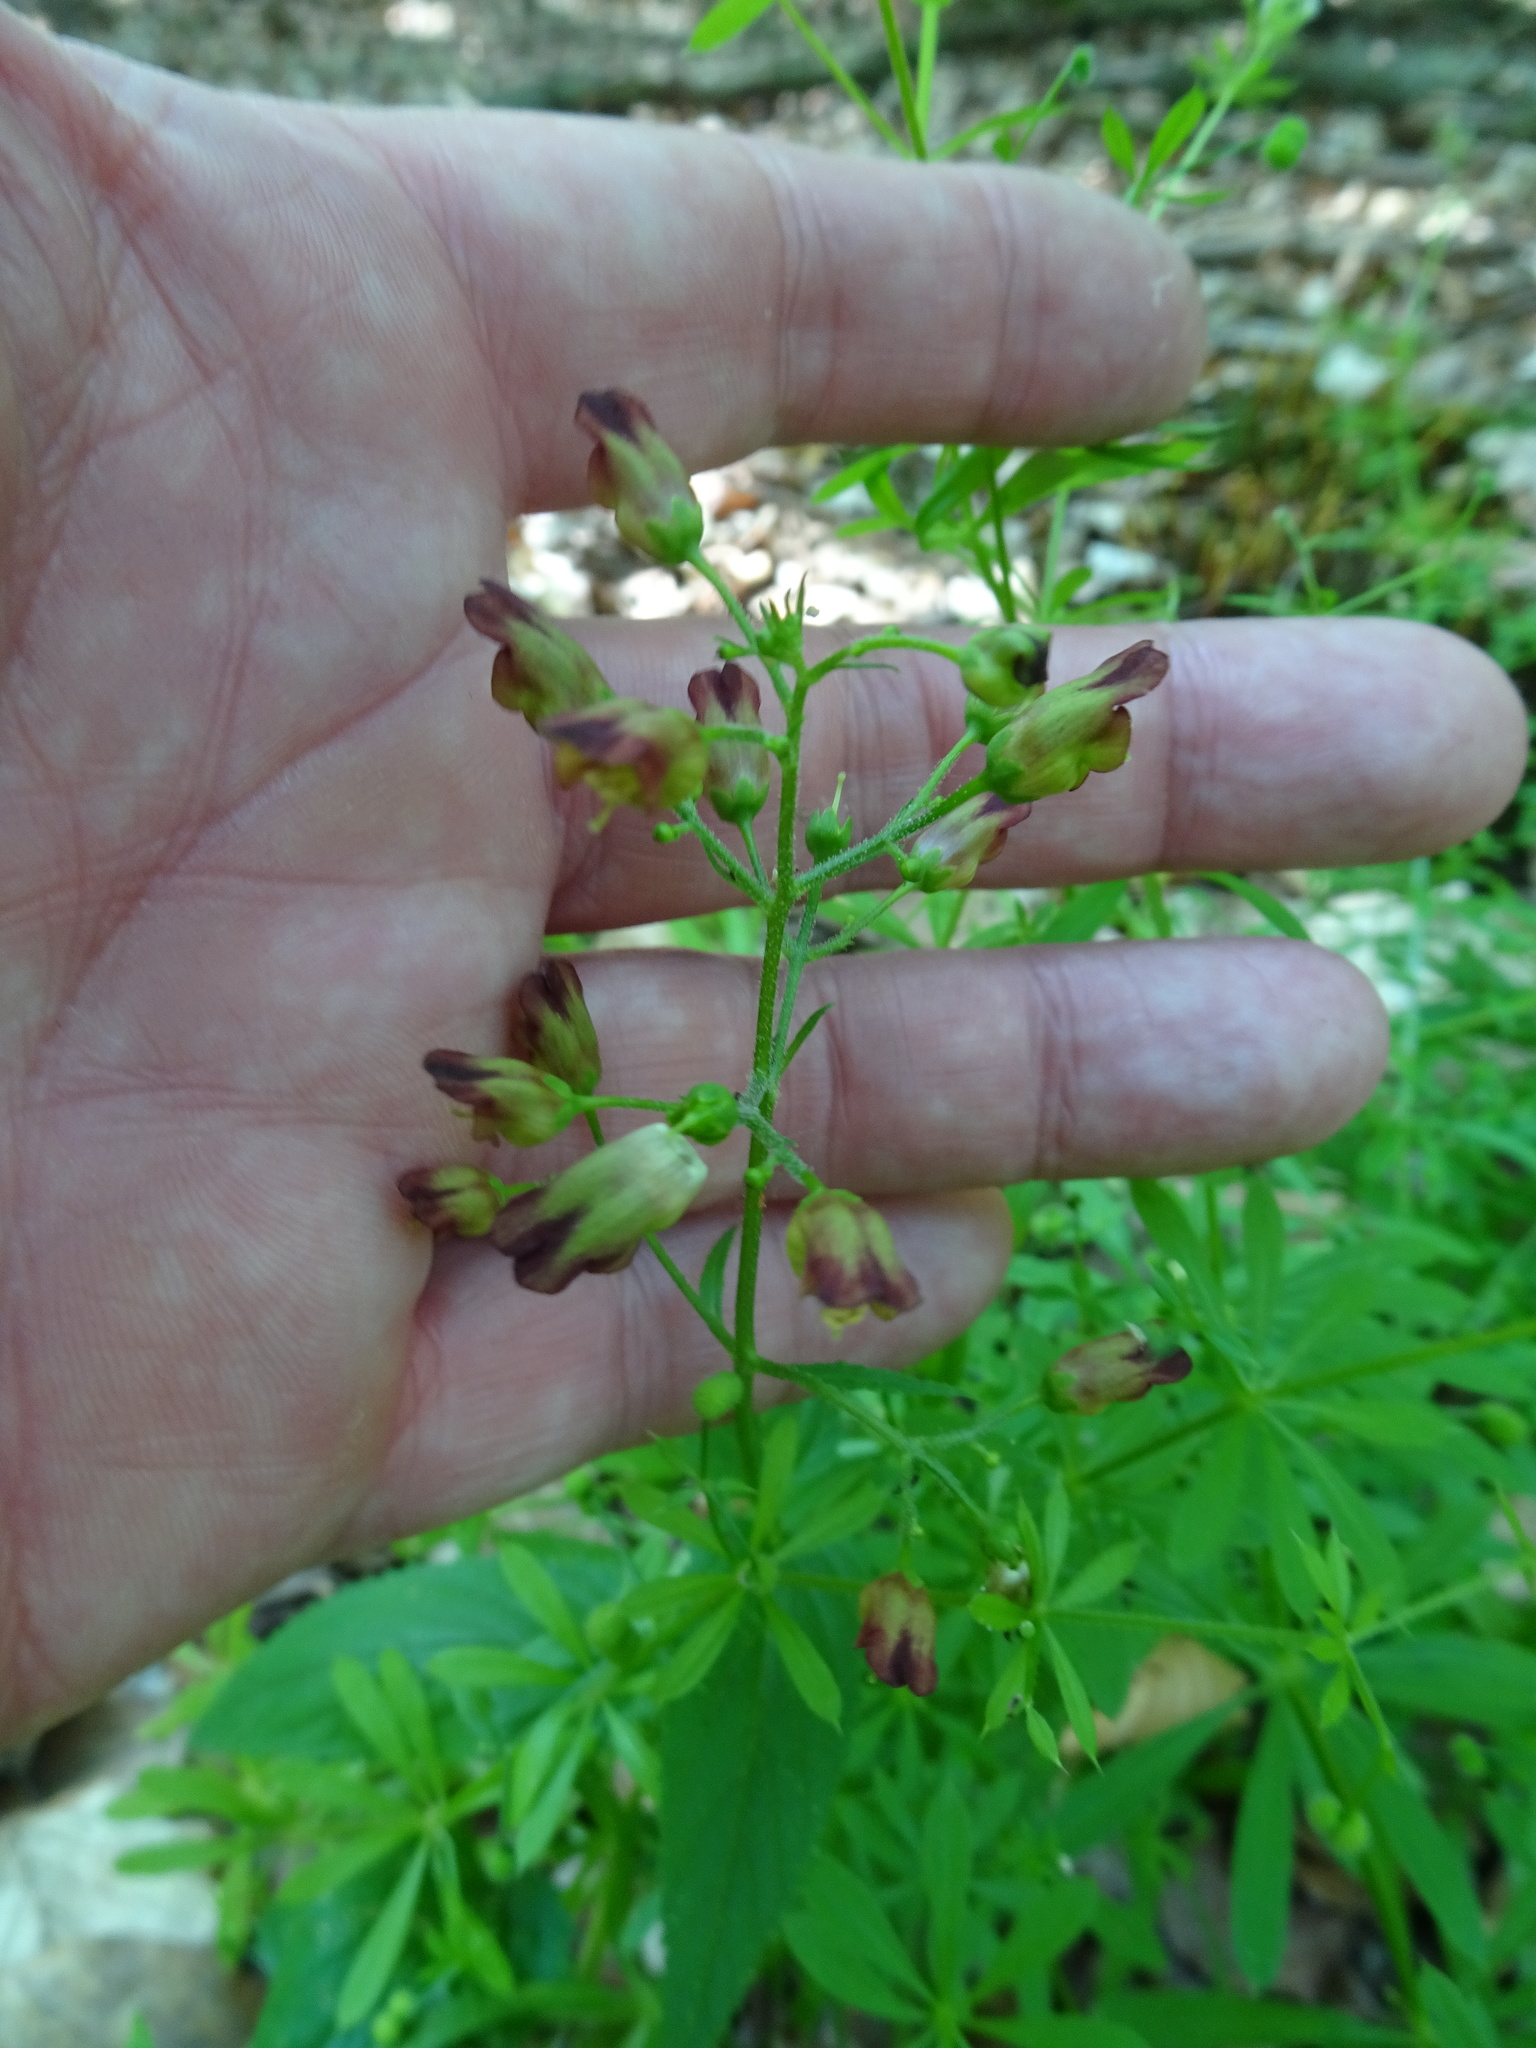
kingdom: Plantae
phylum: Tracheophyta
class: Magnoliopsida
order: Lamiales
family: Scrophulariaceae
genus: Scrophularia
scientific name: Scrophularia nodosa
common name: Common figwort
